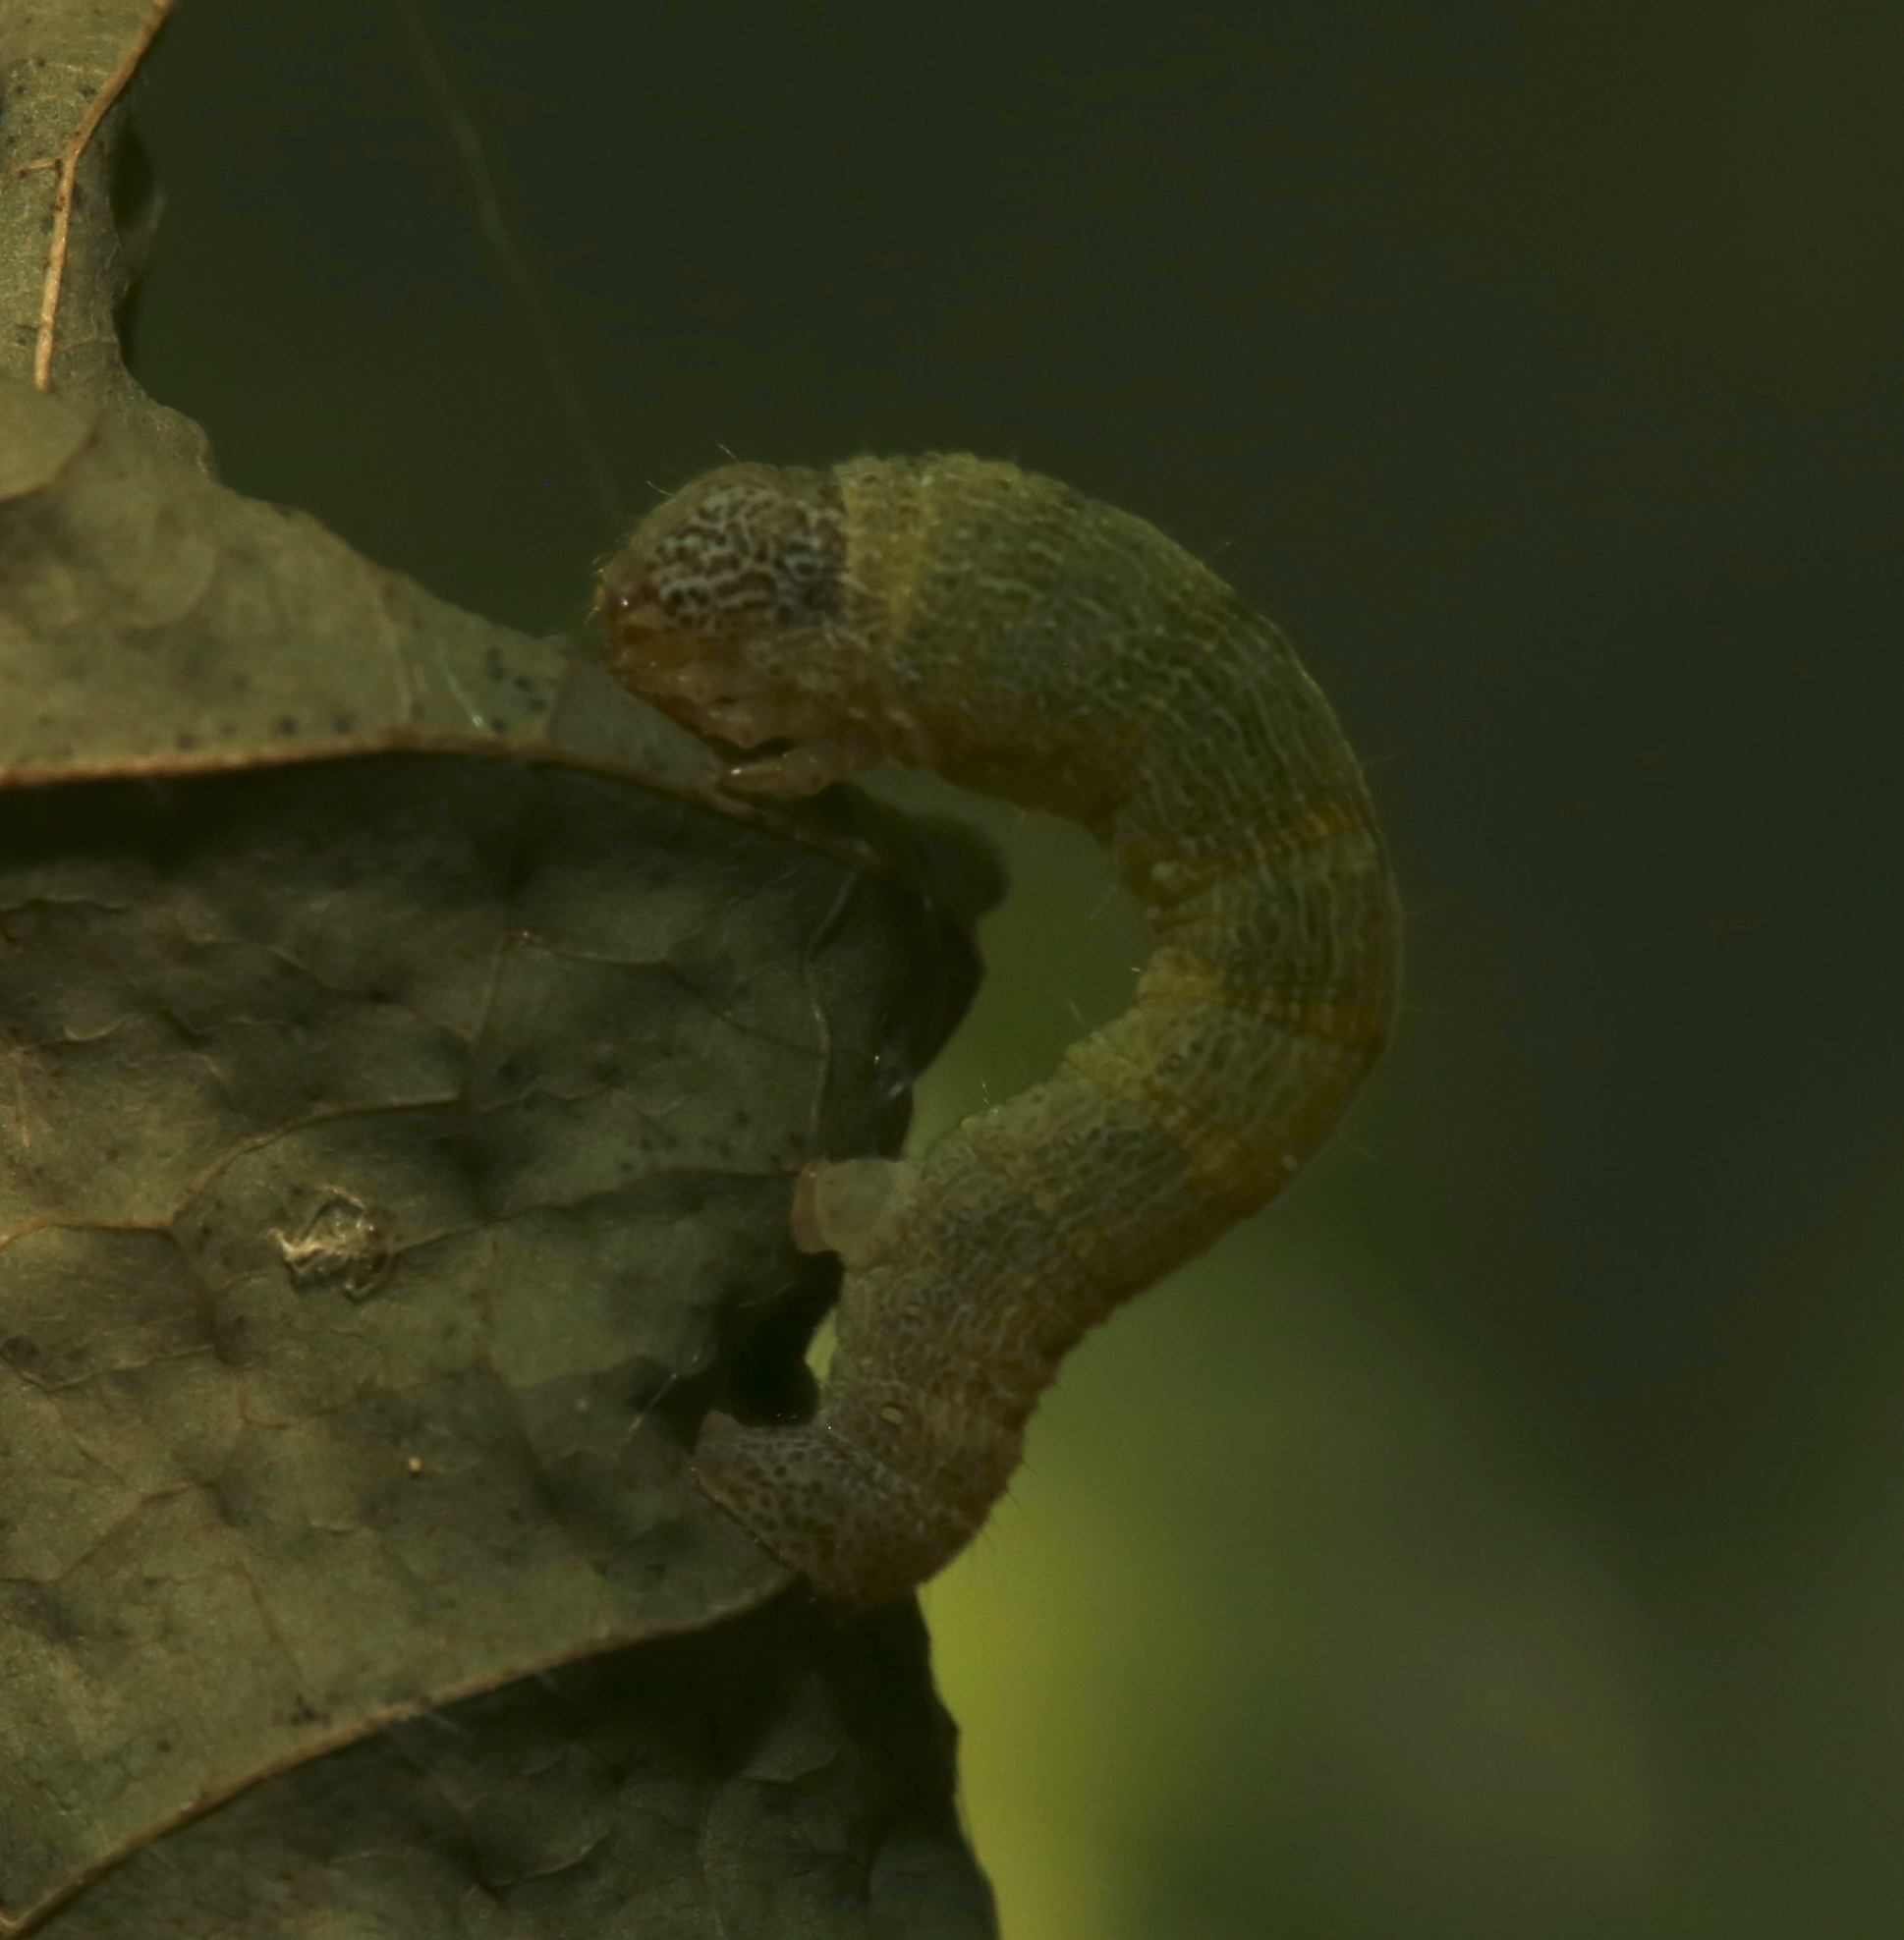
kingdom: Animalia
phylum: Arthropoda
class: Insecta
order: Lepidoptera
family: Geometridae
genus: Epimecis
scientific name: Epimecis hortaria
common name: Tulip-tree beauty
